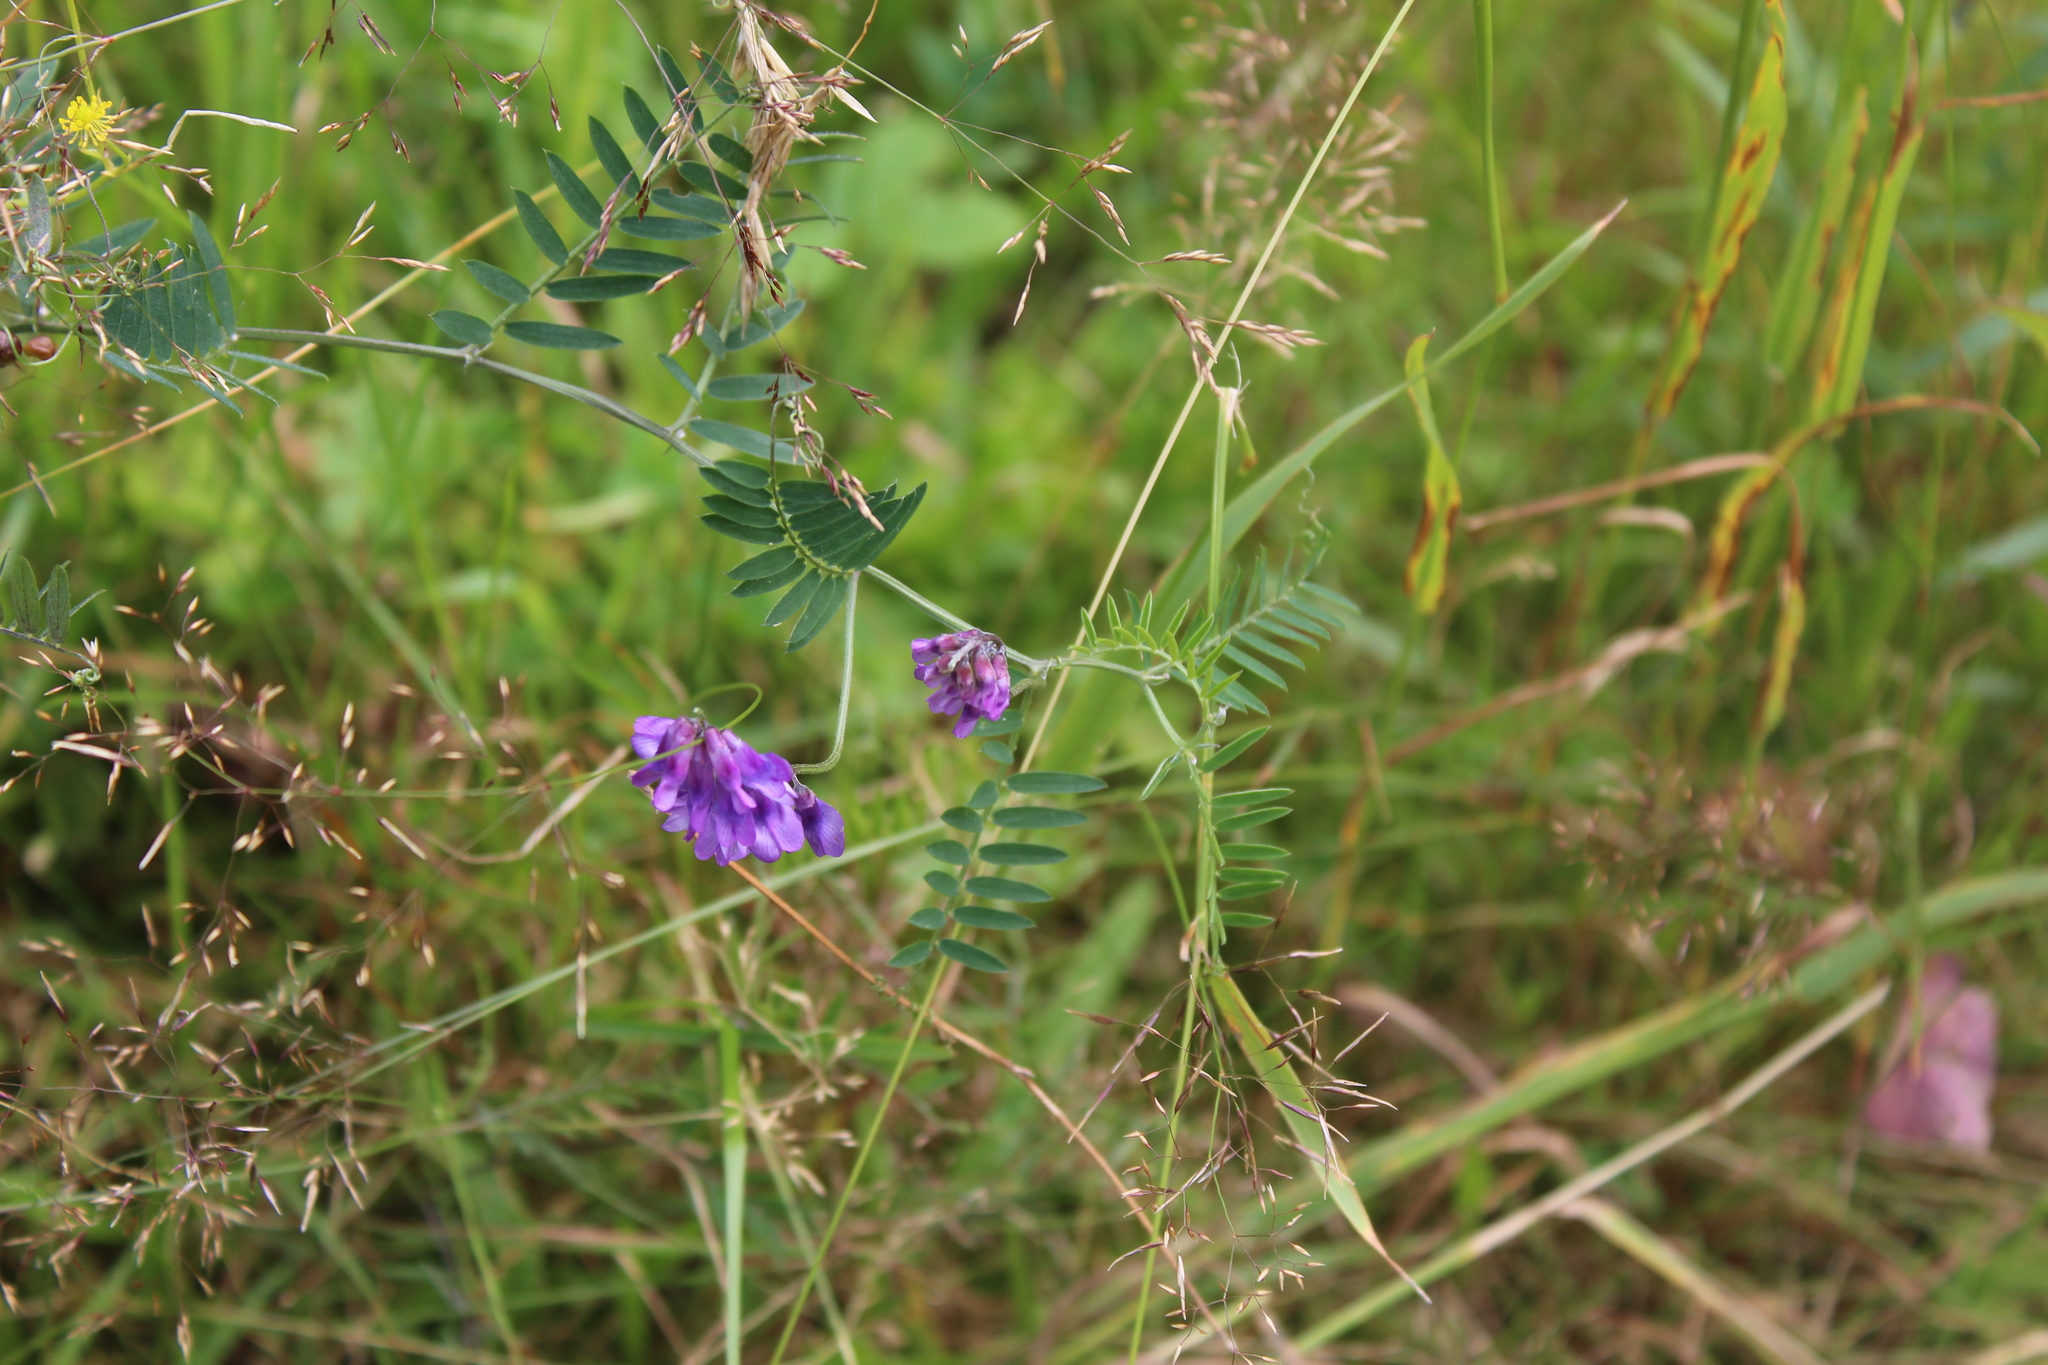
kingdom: Plantae
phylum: Tracheophyta
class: Magnoliopsida
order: Fabales
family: Fabaceae
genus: Vicia
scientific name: Vicia cracca
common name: Bird vetch
